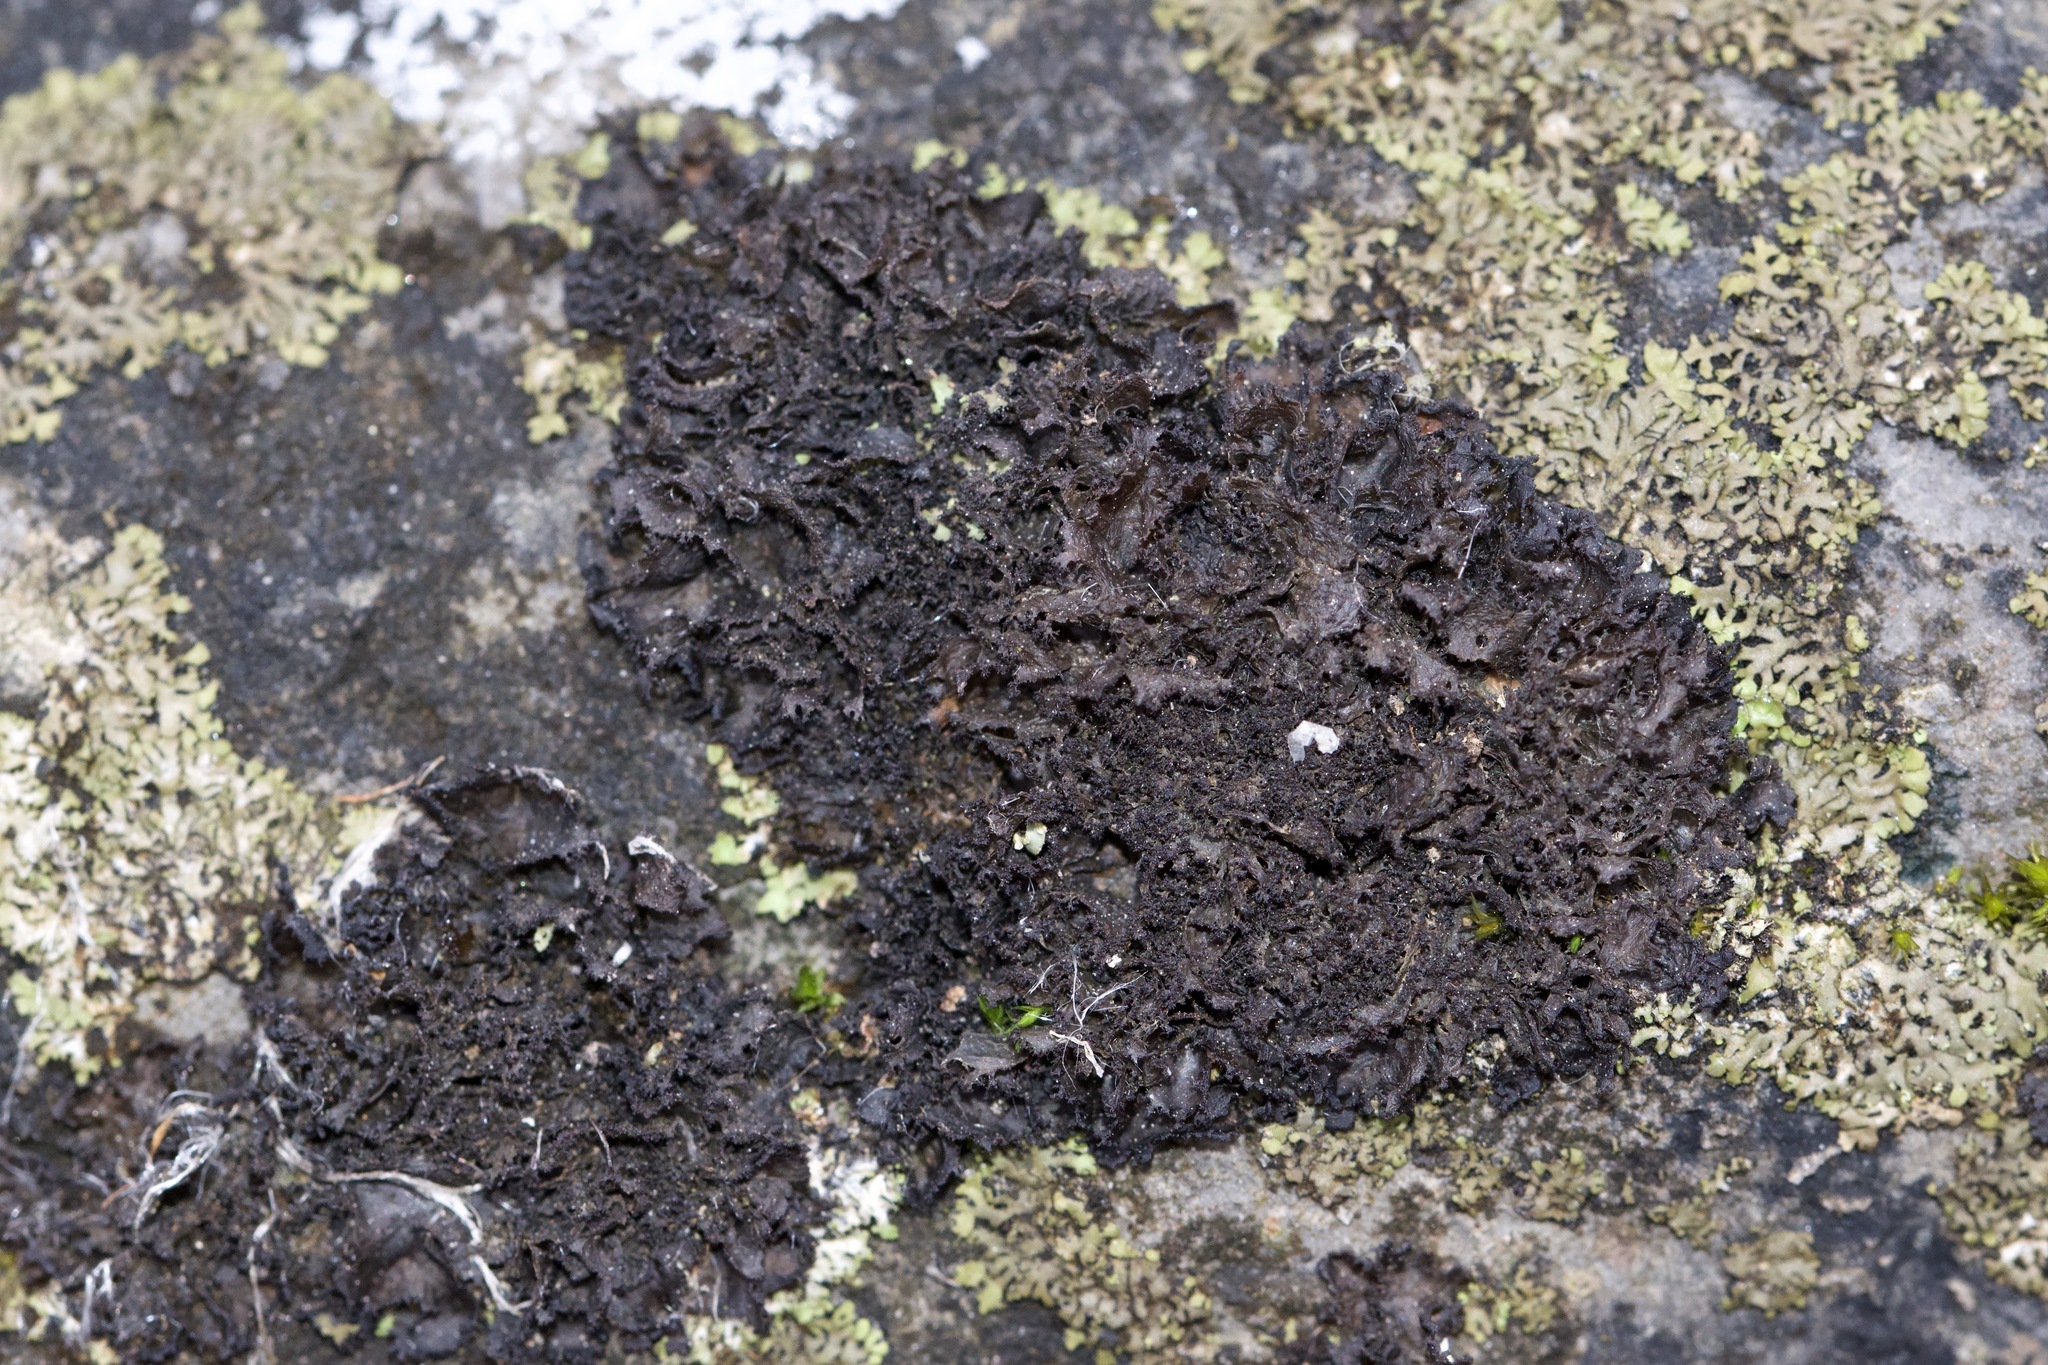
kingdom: Fungi
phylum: Ascomycota
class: Lecanoromycetes
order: Peltigerales
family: Collemataceae
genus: Scytinium
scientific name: Scytinium lichenoides
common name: Tattered jellyskin lichen
